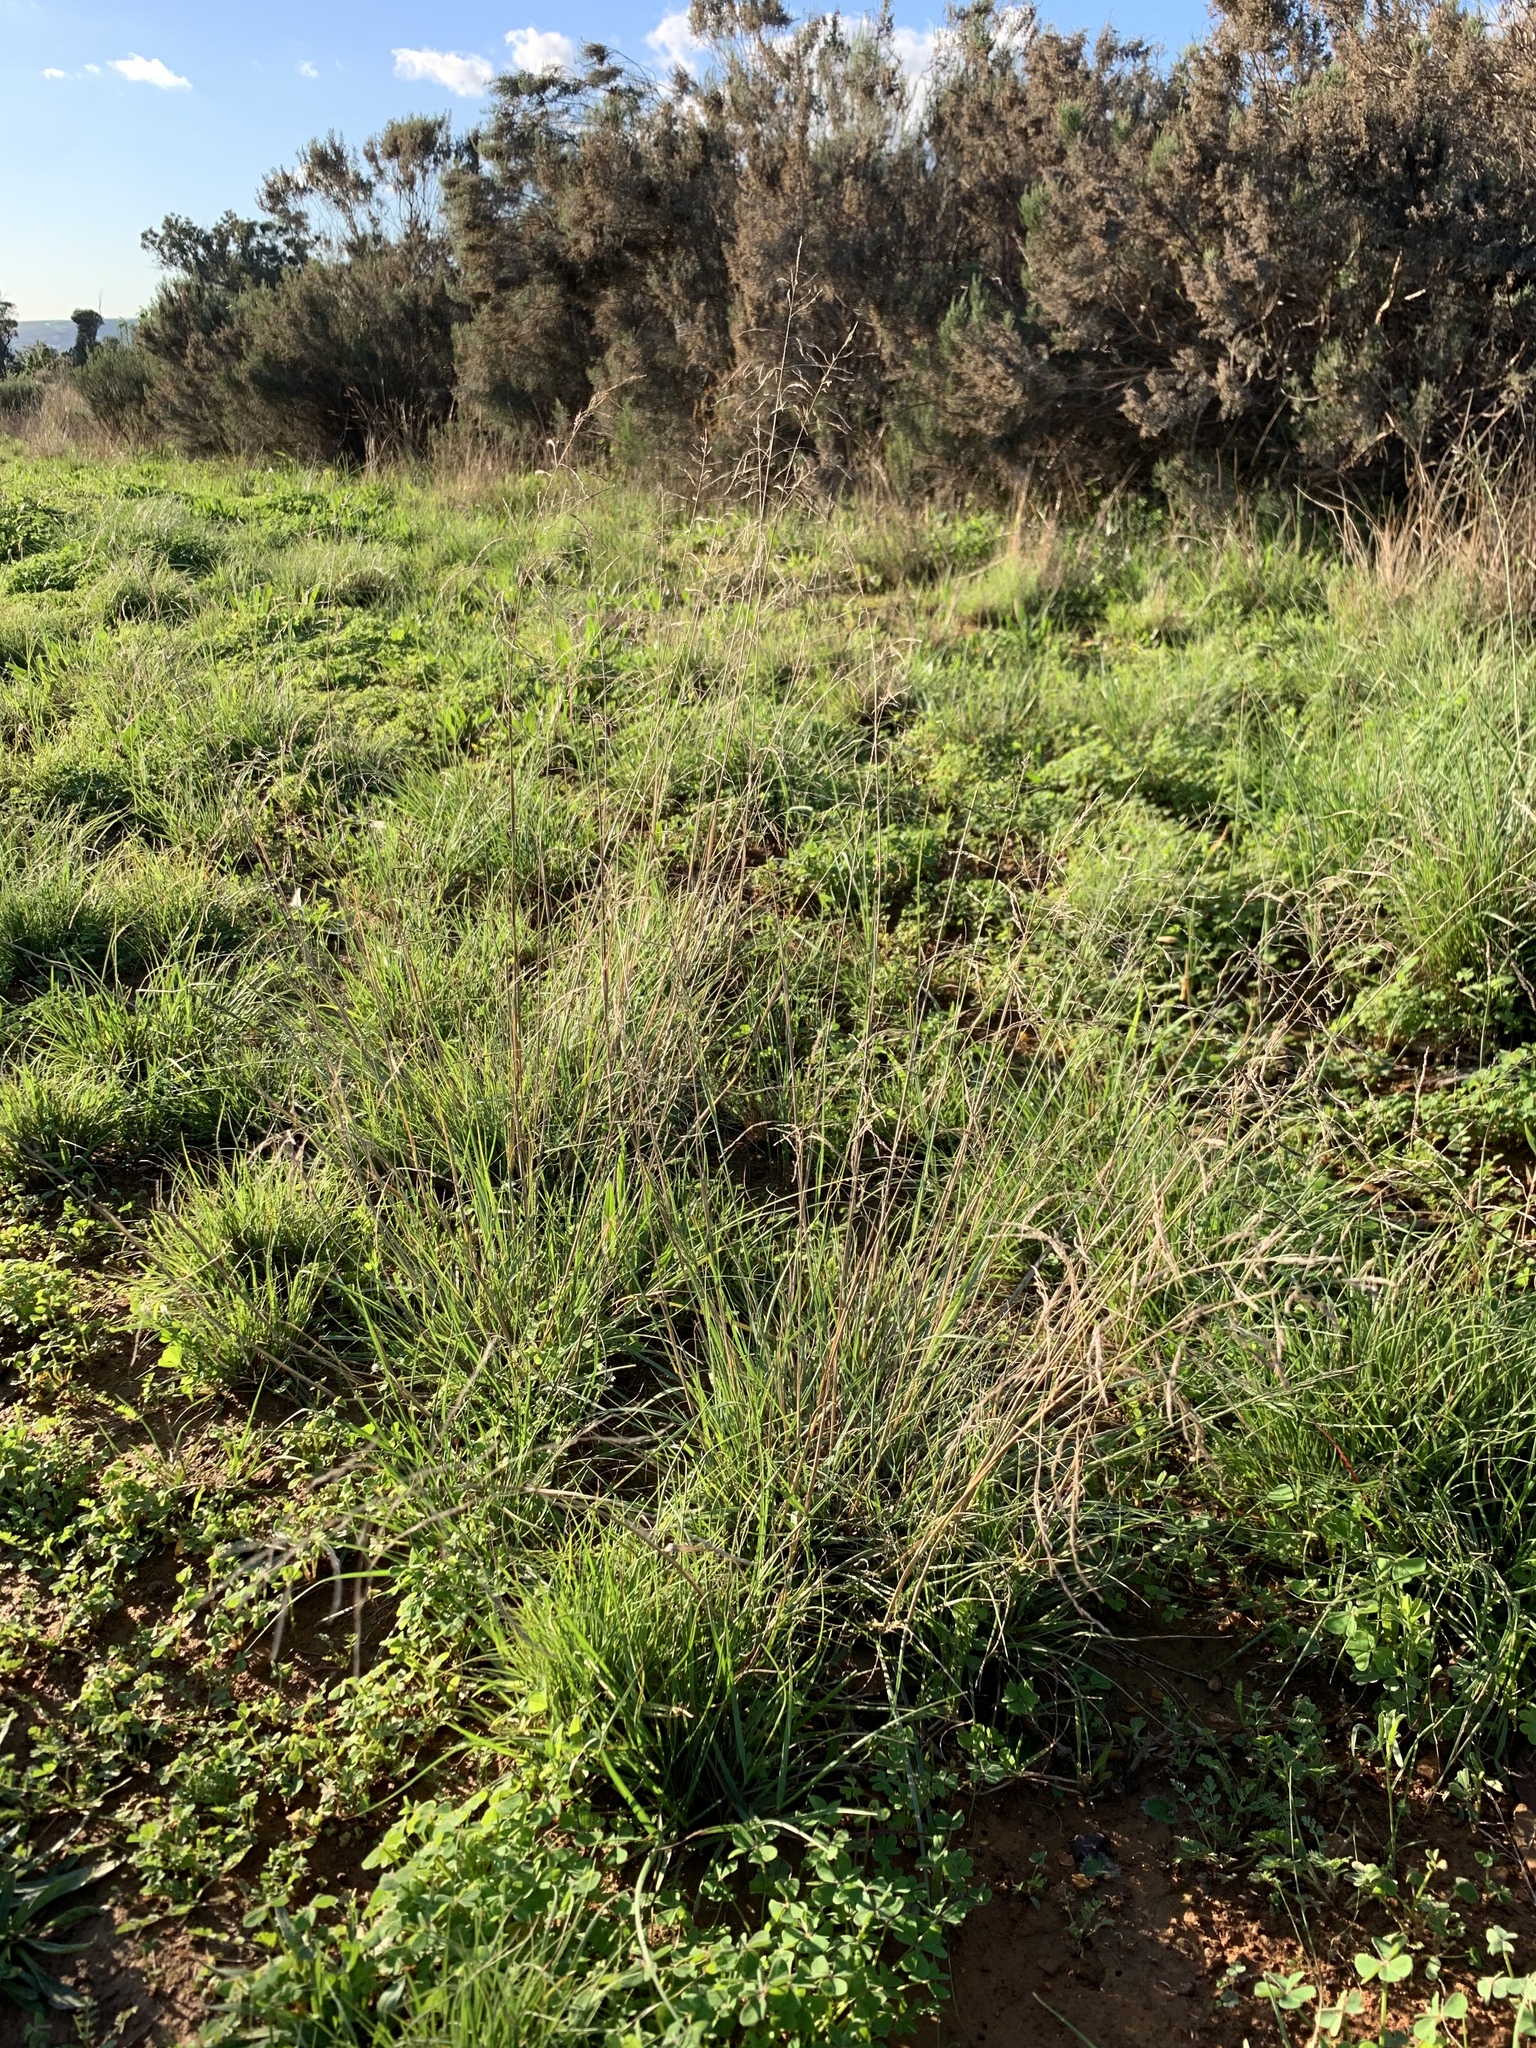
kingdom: Plantae
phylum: Tracheophyta
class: Liliopsida
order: Poales
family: Poaceae
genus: Eragrostis
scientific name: Eragrostis curvula
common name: African love-grass
